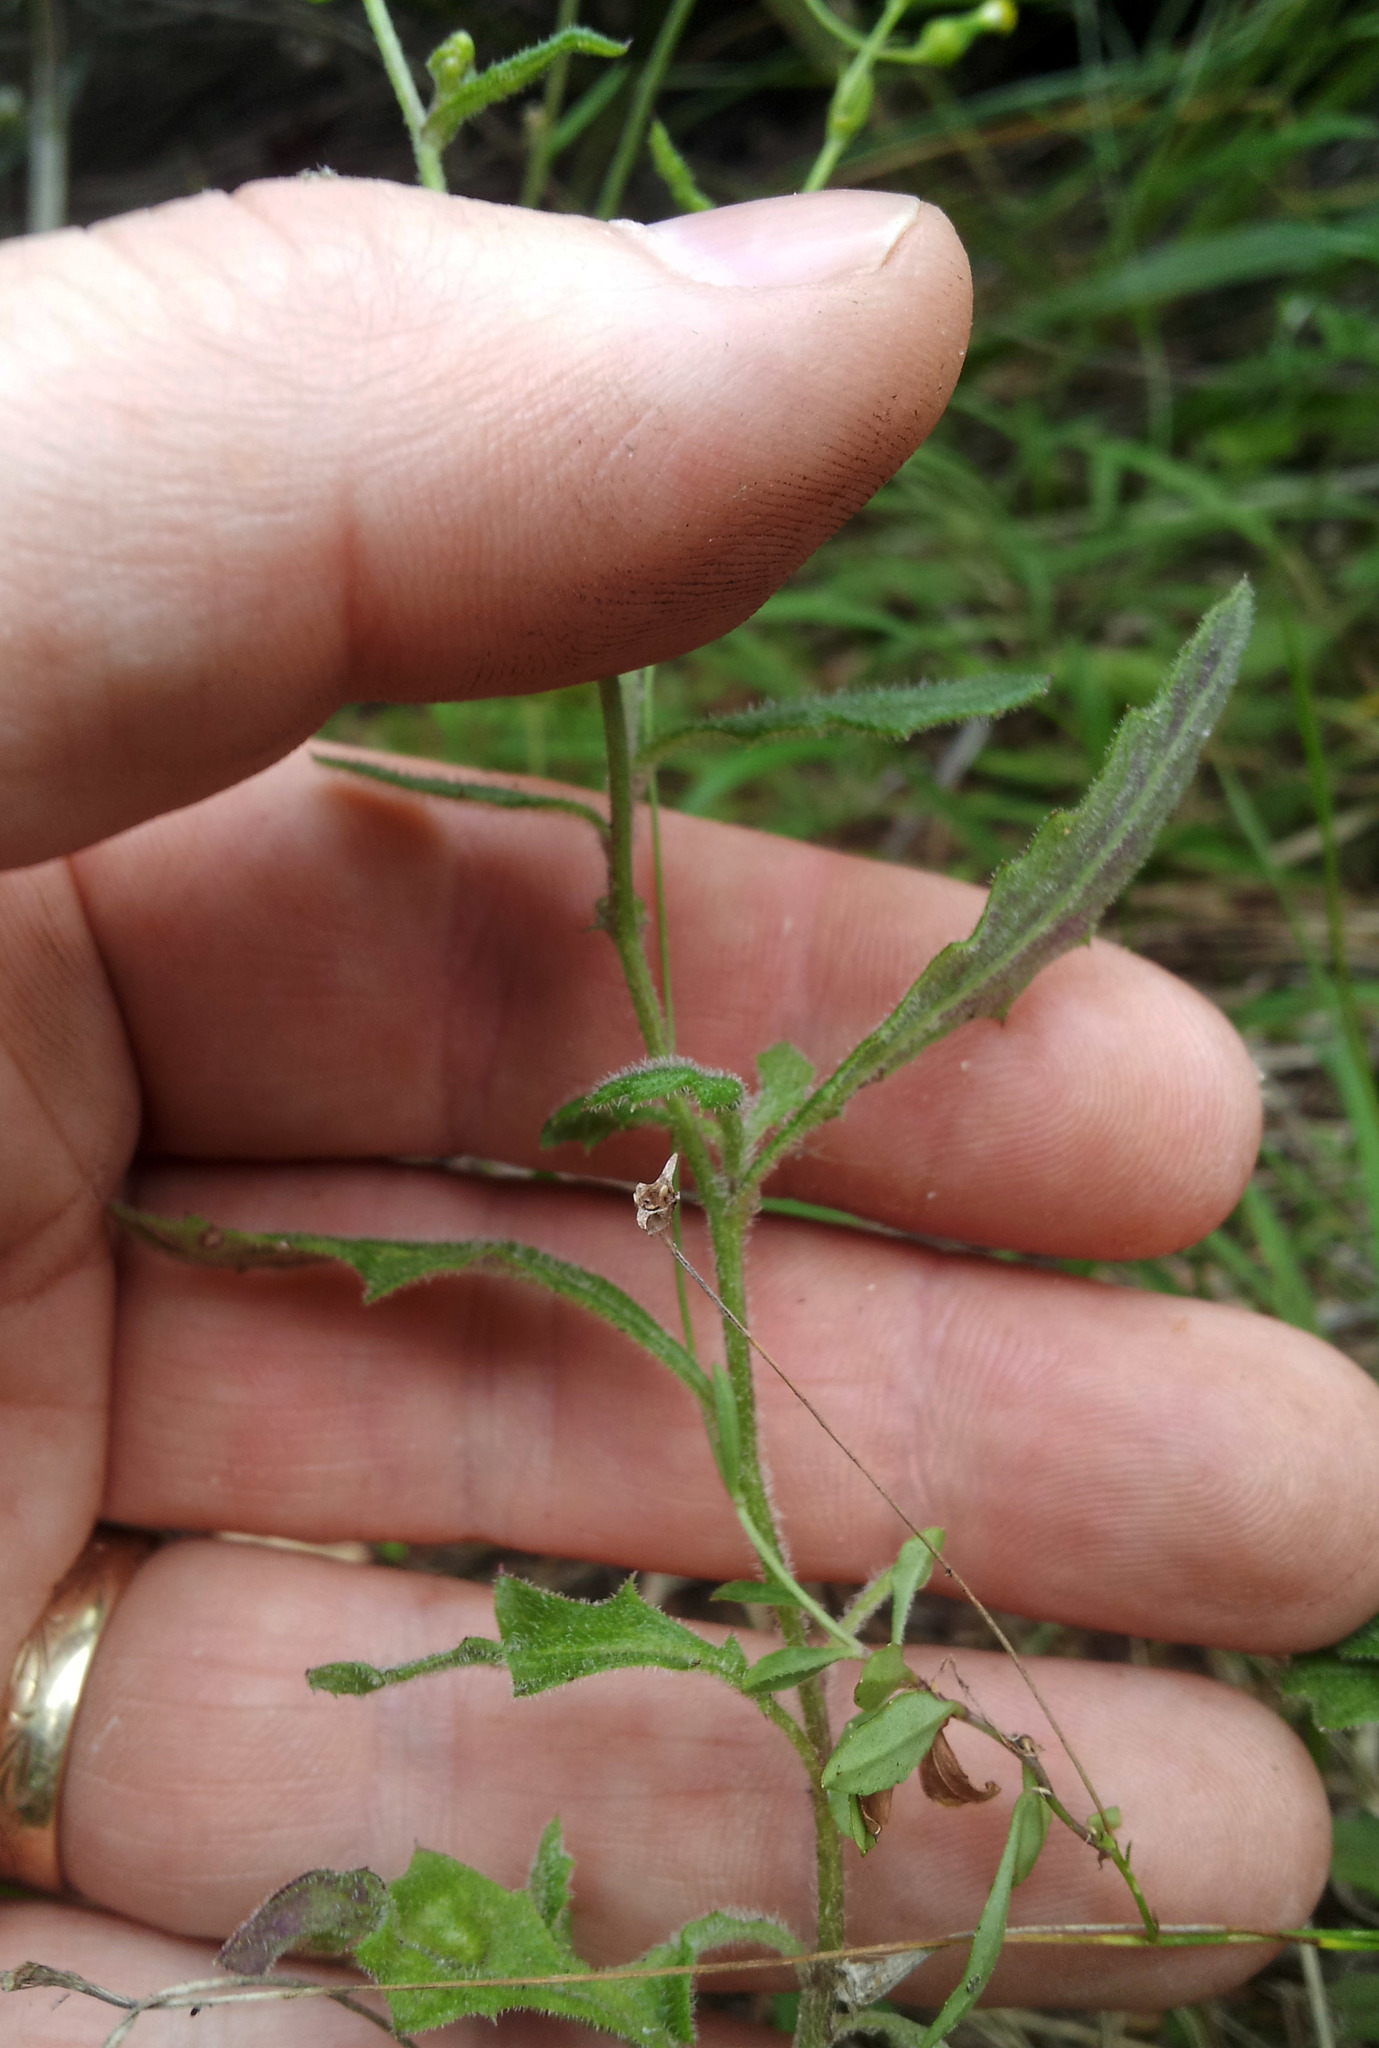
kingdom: Plantae
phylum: Tracheophyta
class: Magnoliopsida
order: Asterales
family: Asteraceae
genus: Senecio
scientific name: Senecio scaberulus
